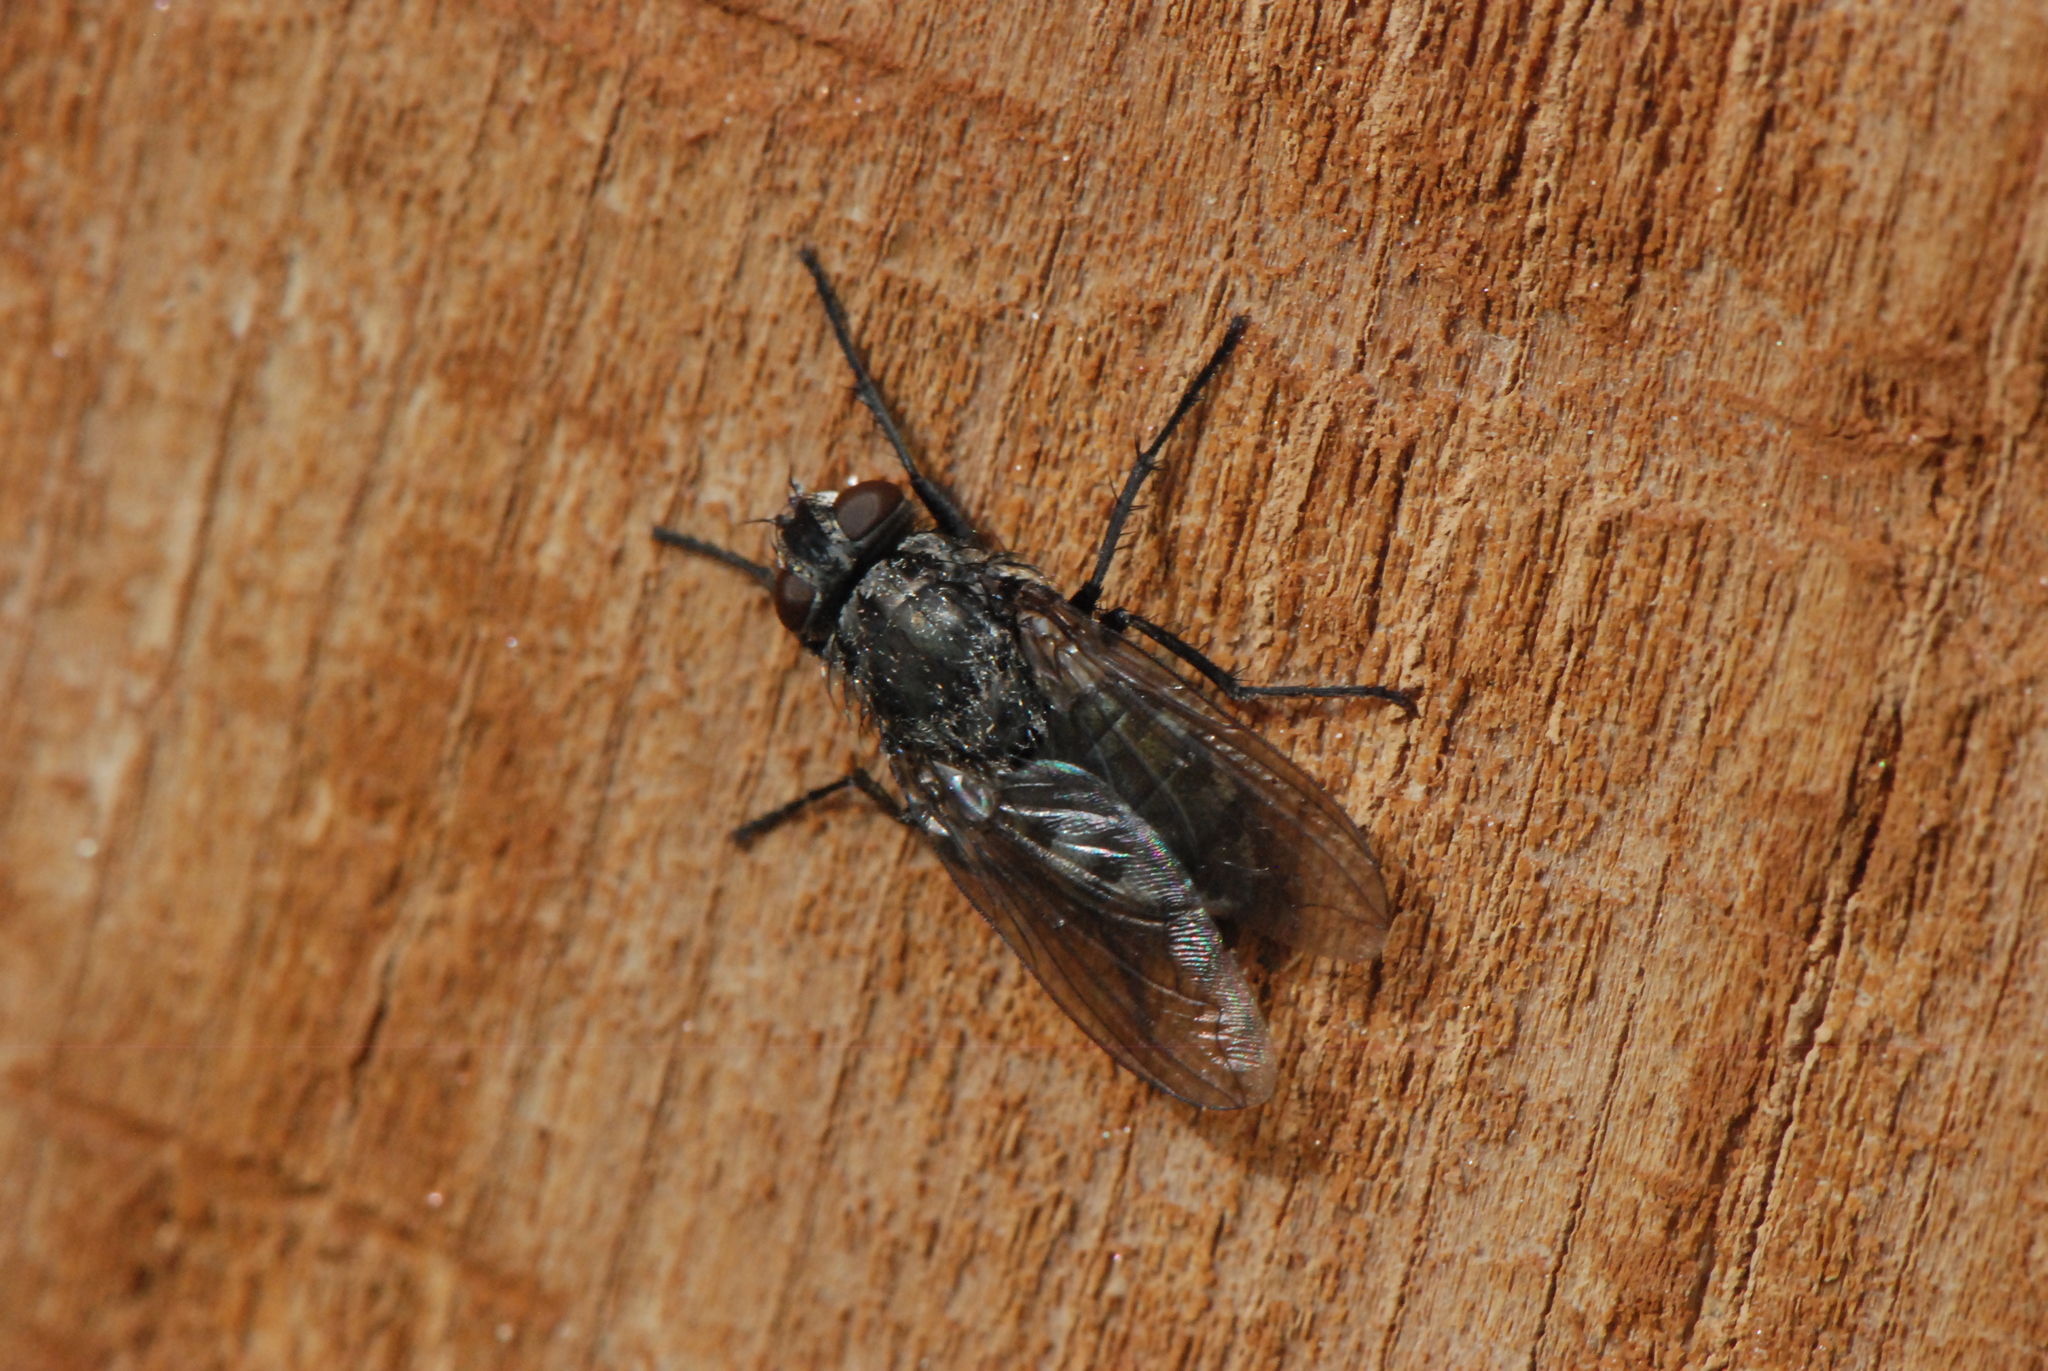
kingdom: Animalia
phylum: Arthropoda
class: Insecta
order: Diptera
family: Polleniidae
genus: Pollenia
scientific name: Pollenia vagabunda
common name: Vagabund cluster fly
